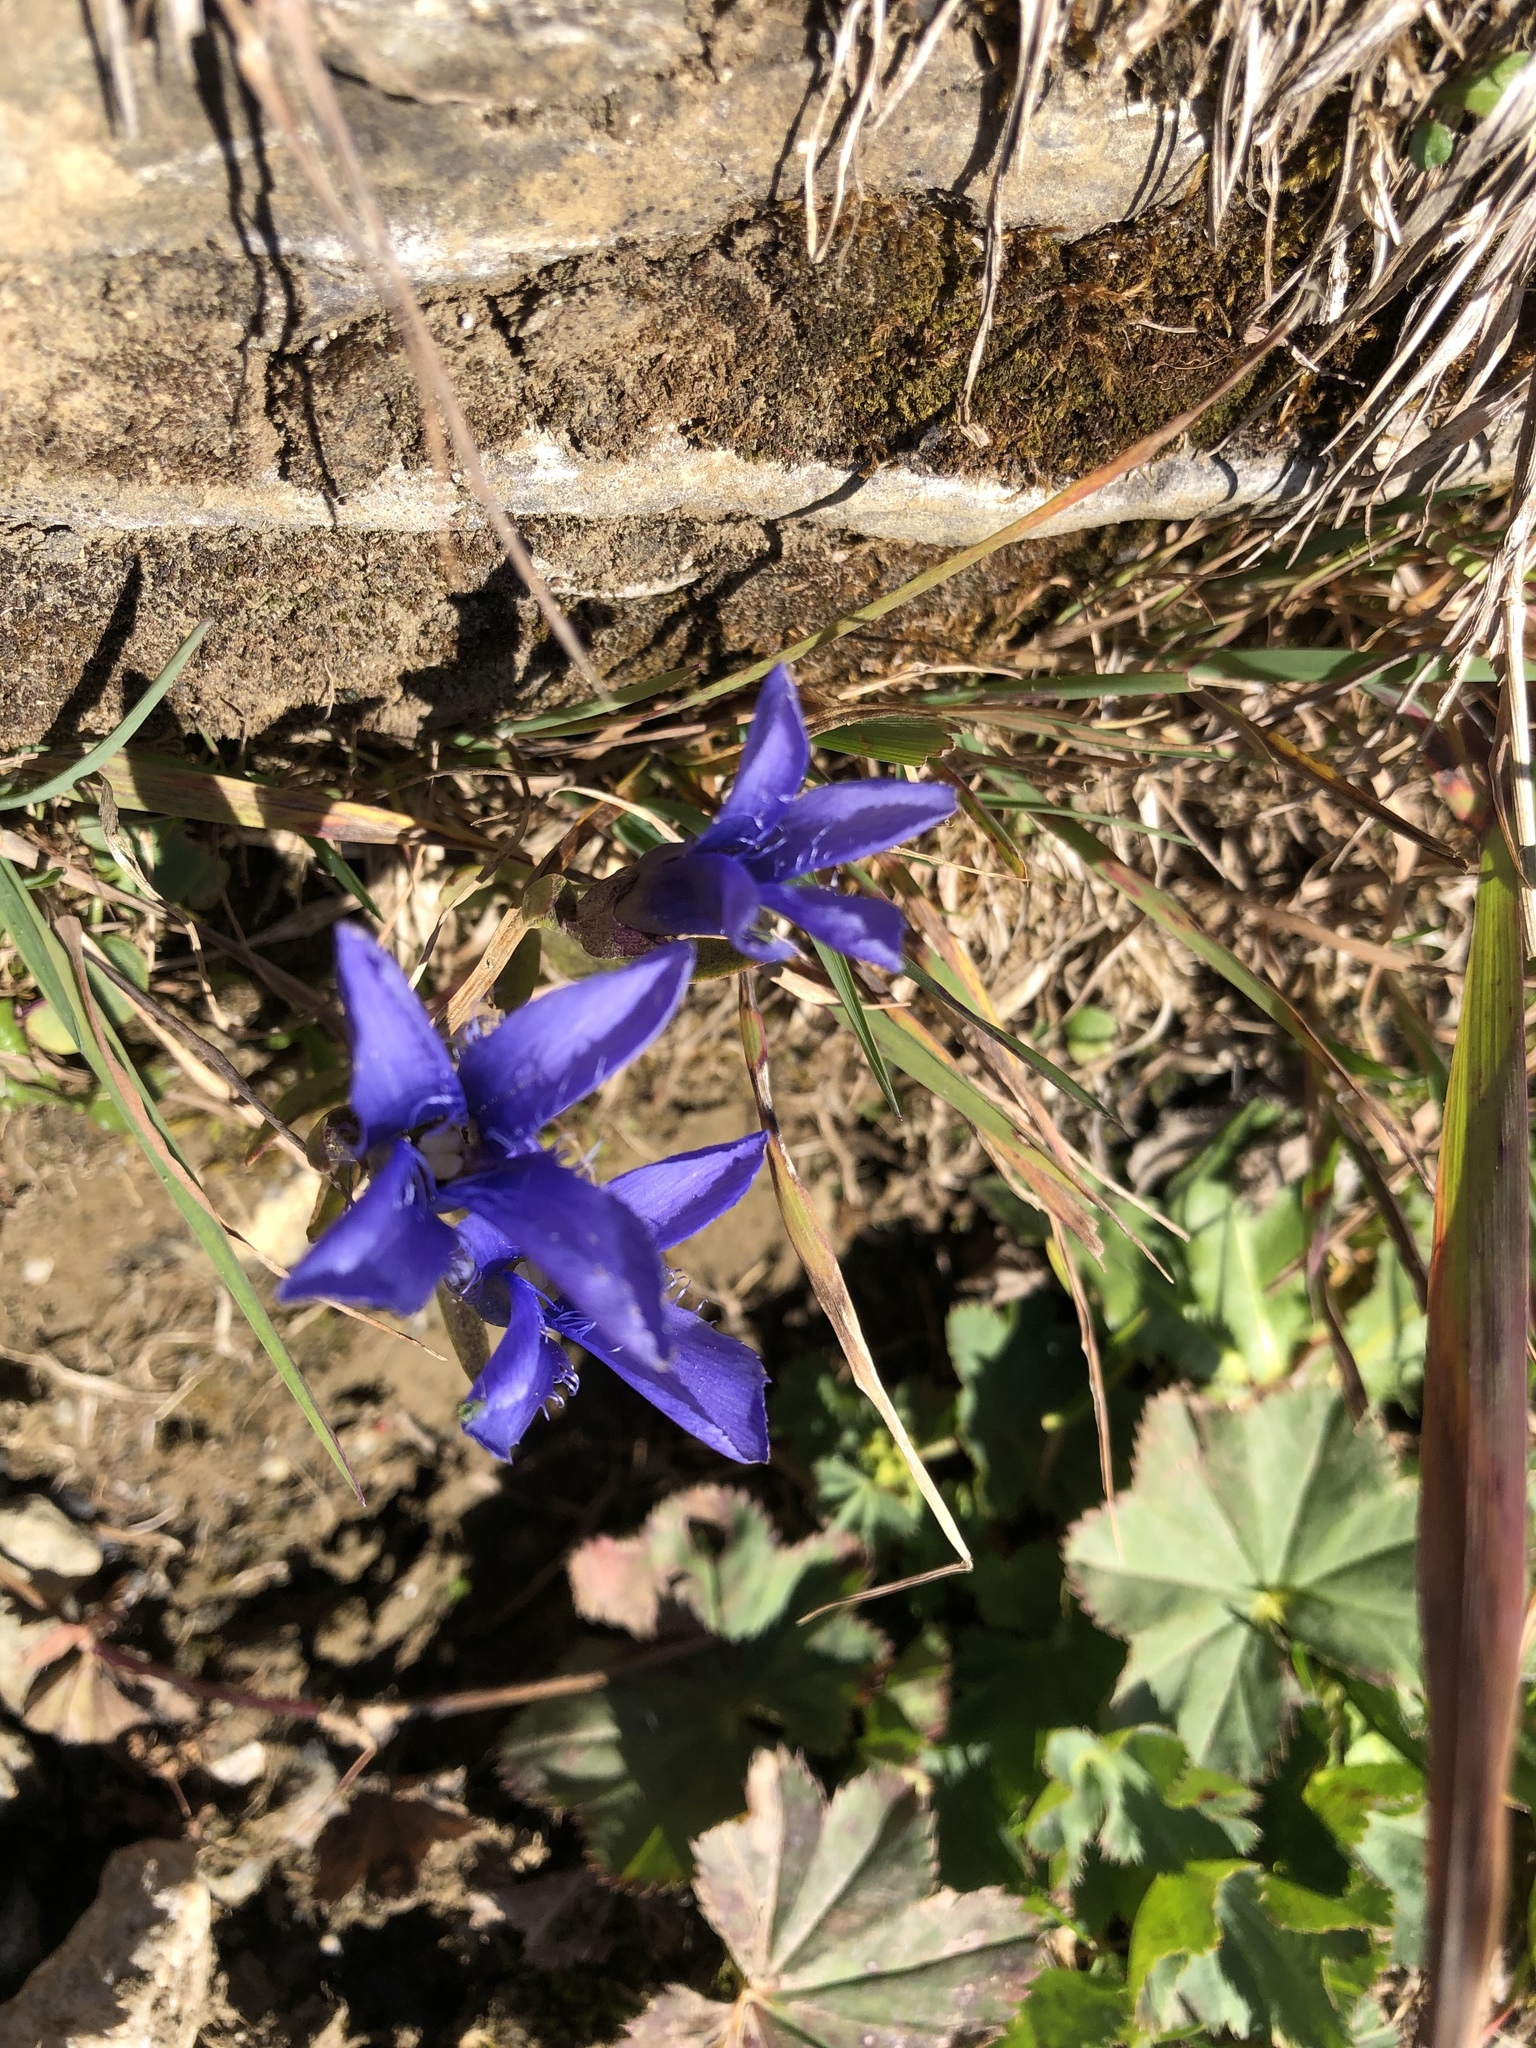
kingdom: Plantae
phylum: Tracheophyta
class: Magnoliopsida
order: Gentianales
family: Gentianaceae
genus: Gentianopsis
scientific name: Gentianopsis ciliata
